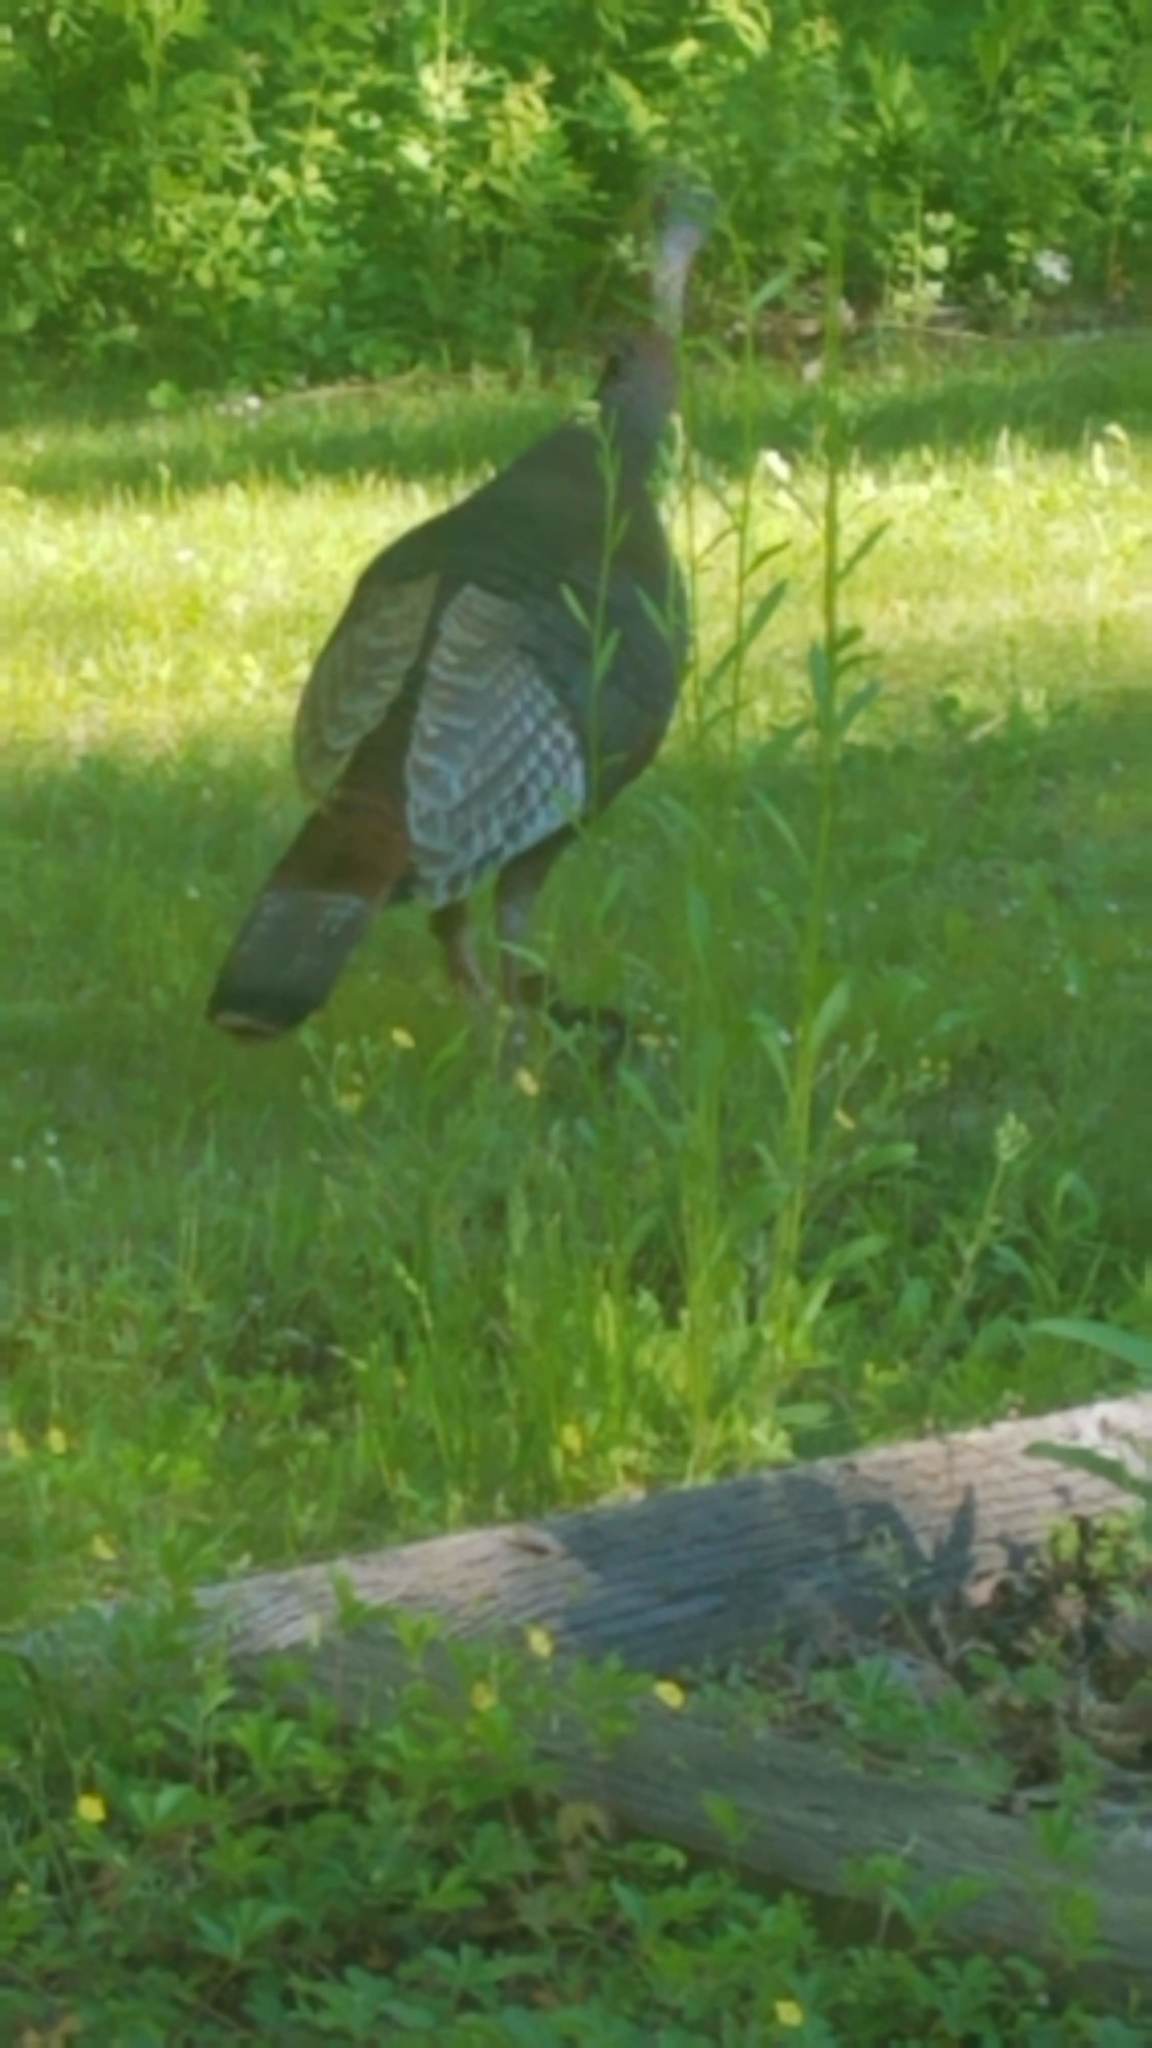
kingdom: Animalia
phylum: Chordata
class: Aves
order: Galliformes
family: Phasianidae
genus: Meleagris
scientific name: Meleagris gallopavo
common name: Wild turkey
